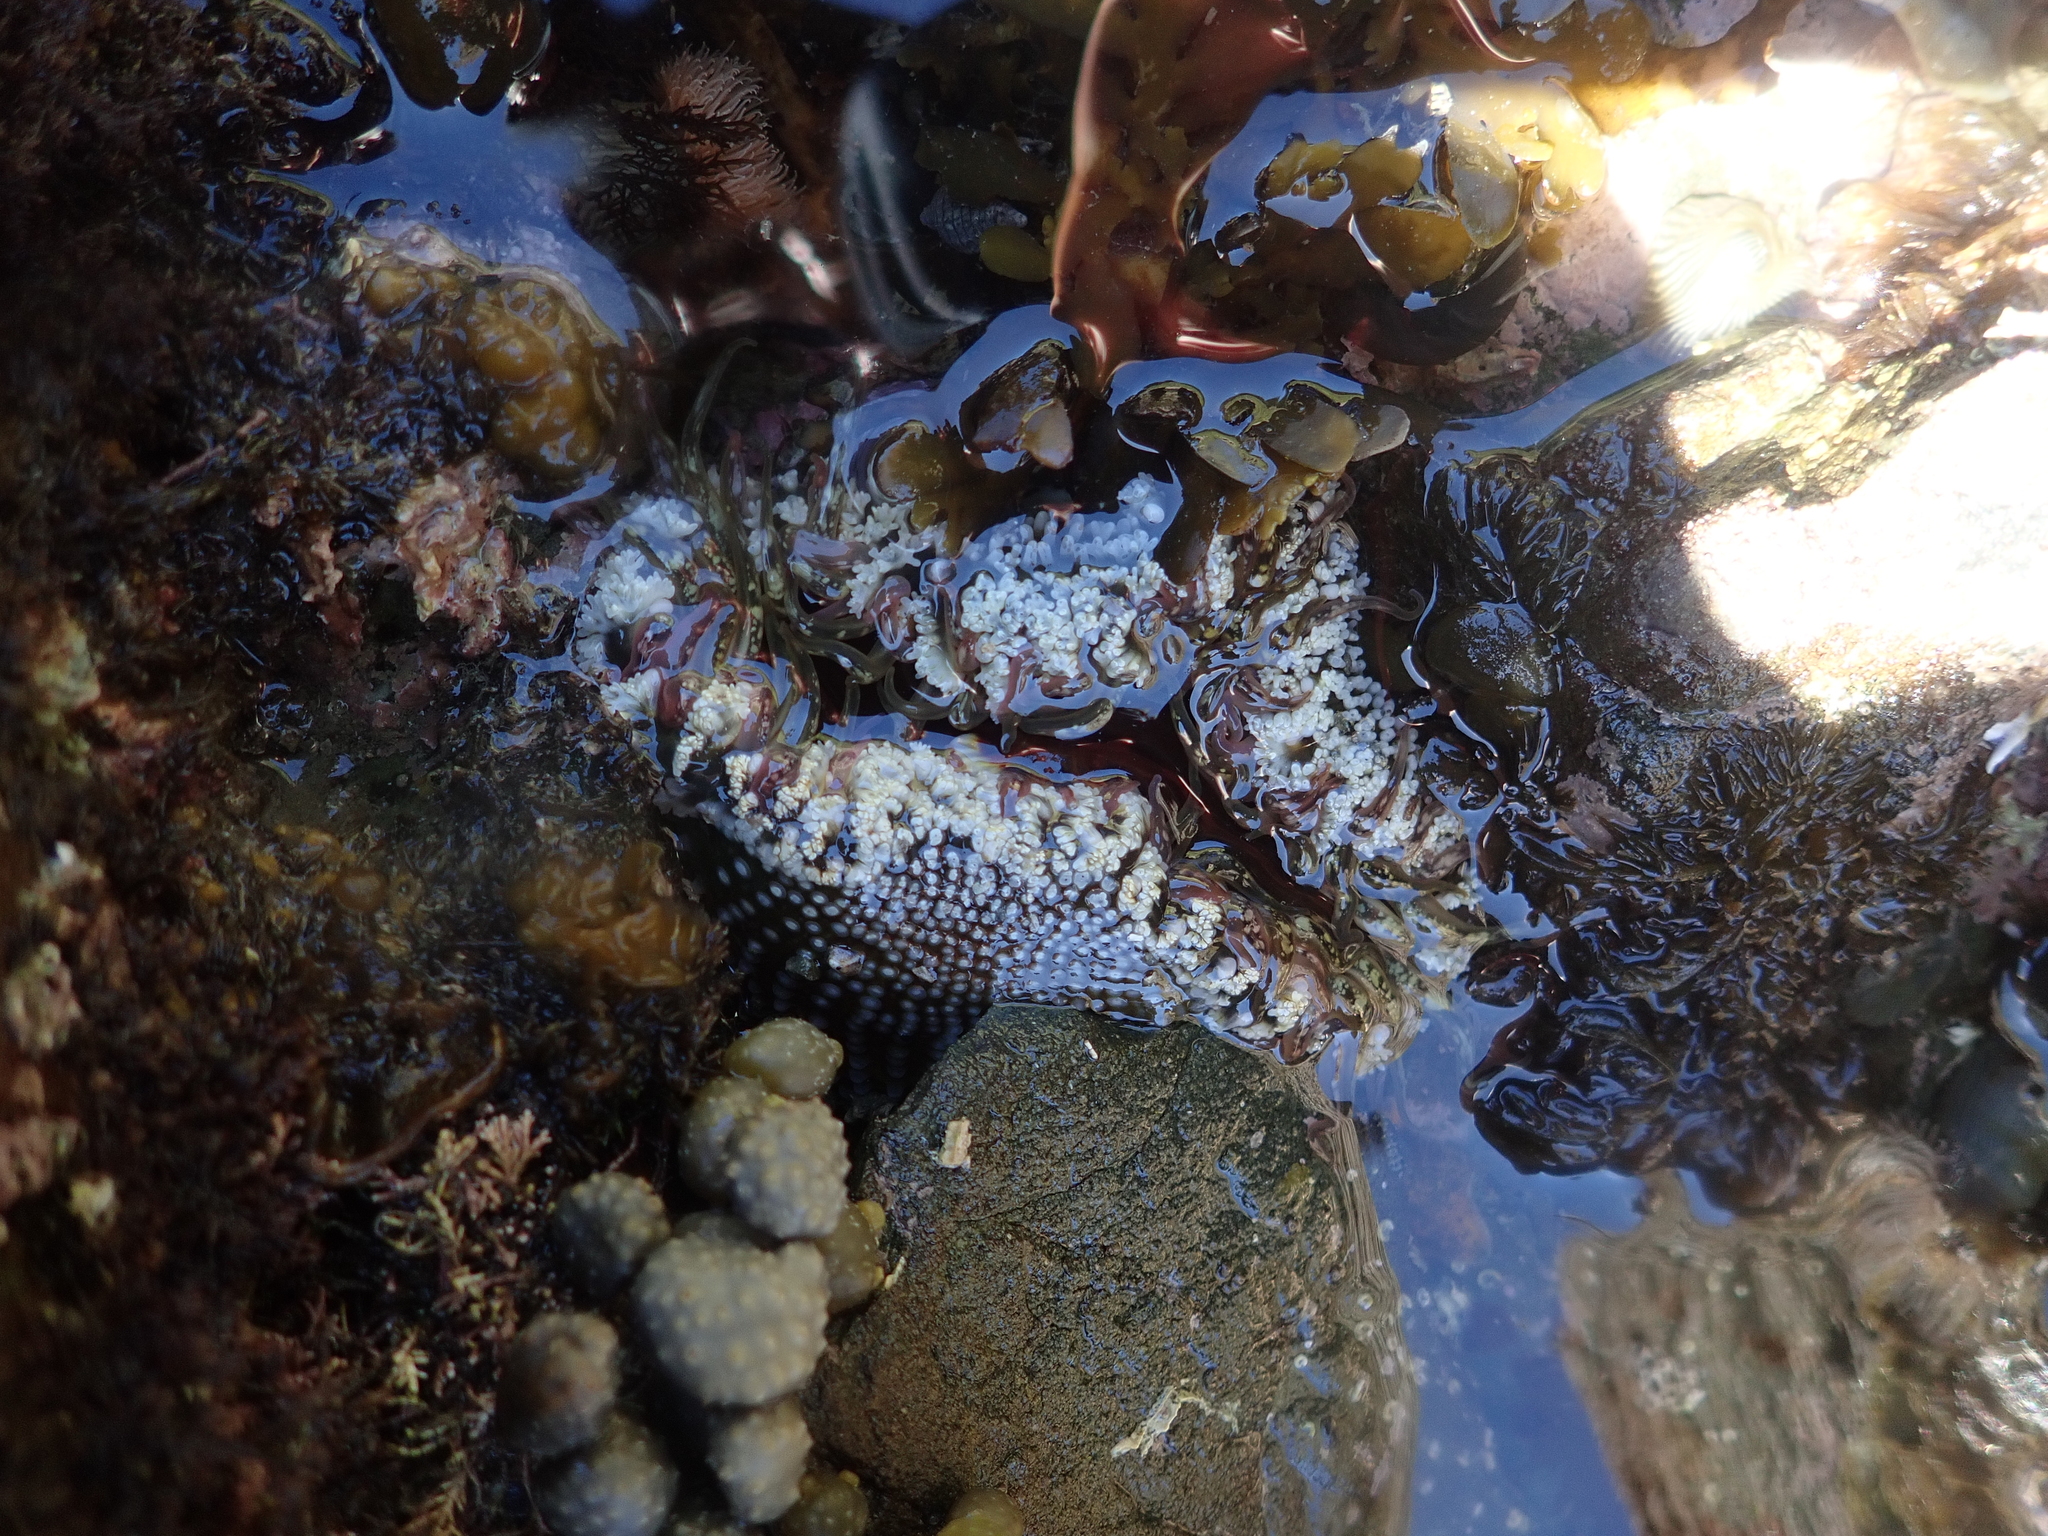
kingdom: Animalia
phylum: Cnidaria
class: Anthozoa
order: Actiniaria
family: Actiniidae
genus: Oulactis
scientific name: Oulactis muscosa
